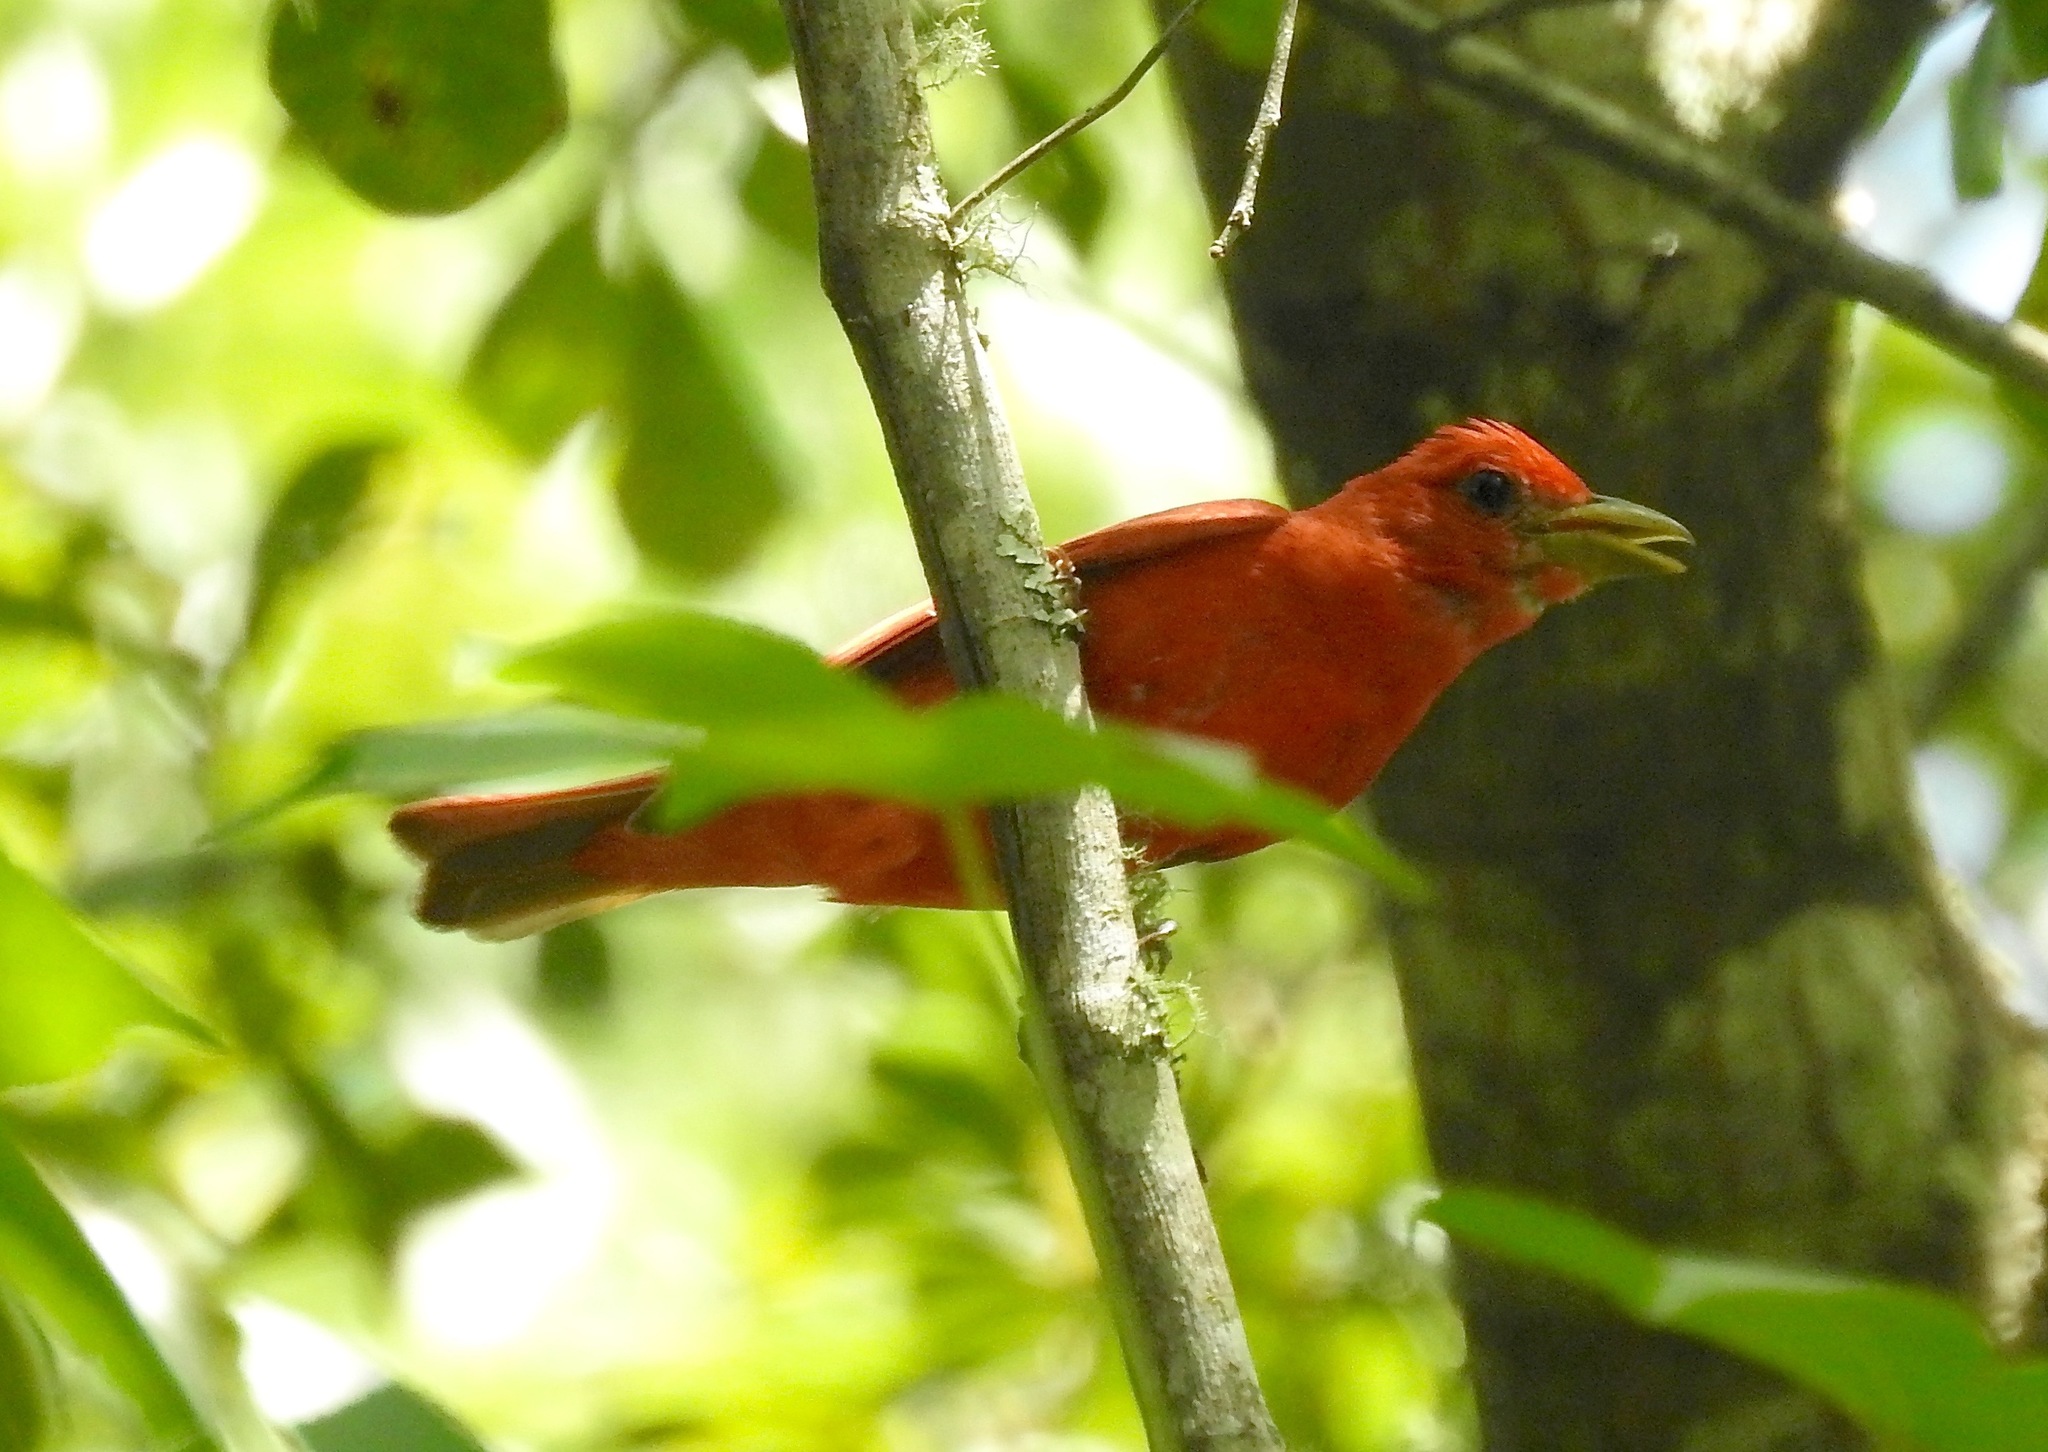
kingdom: Animalia
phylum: Chordata
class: Aves
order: Passeriformes
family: Cardinalidae
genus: Piranga
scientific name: Piranga rubra
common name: Summer tanager
